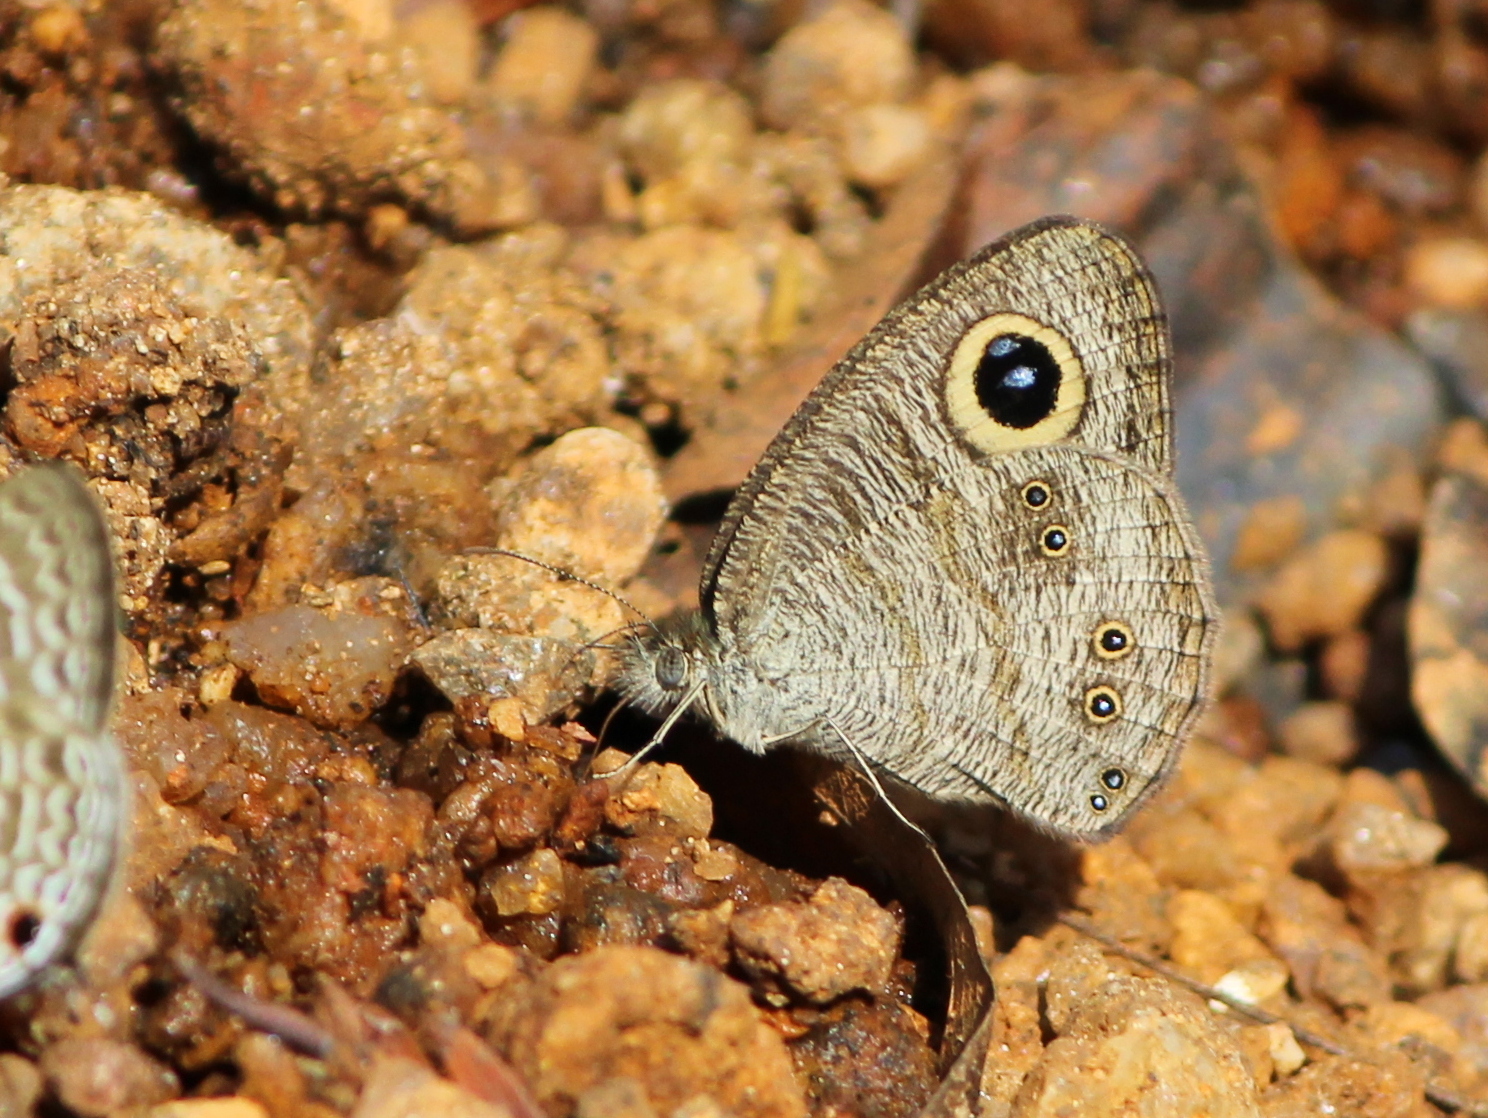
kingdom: Animalia
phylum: Arthropoda
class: Insecta
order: Lepidoptera
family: Nymphalidae
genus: Ypthima
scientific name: Ypthima baldus
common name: Common five-ring
